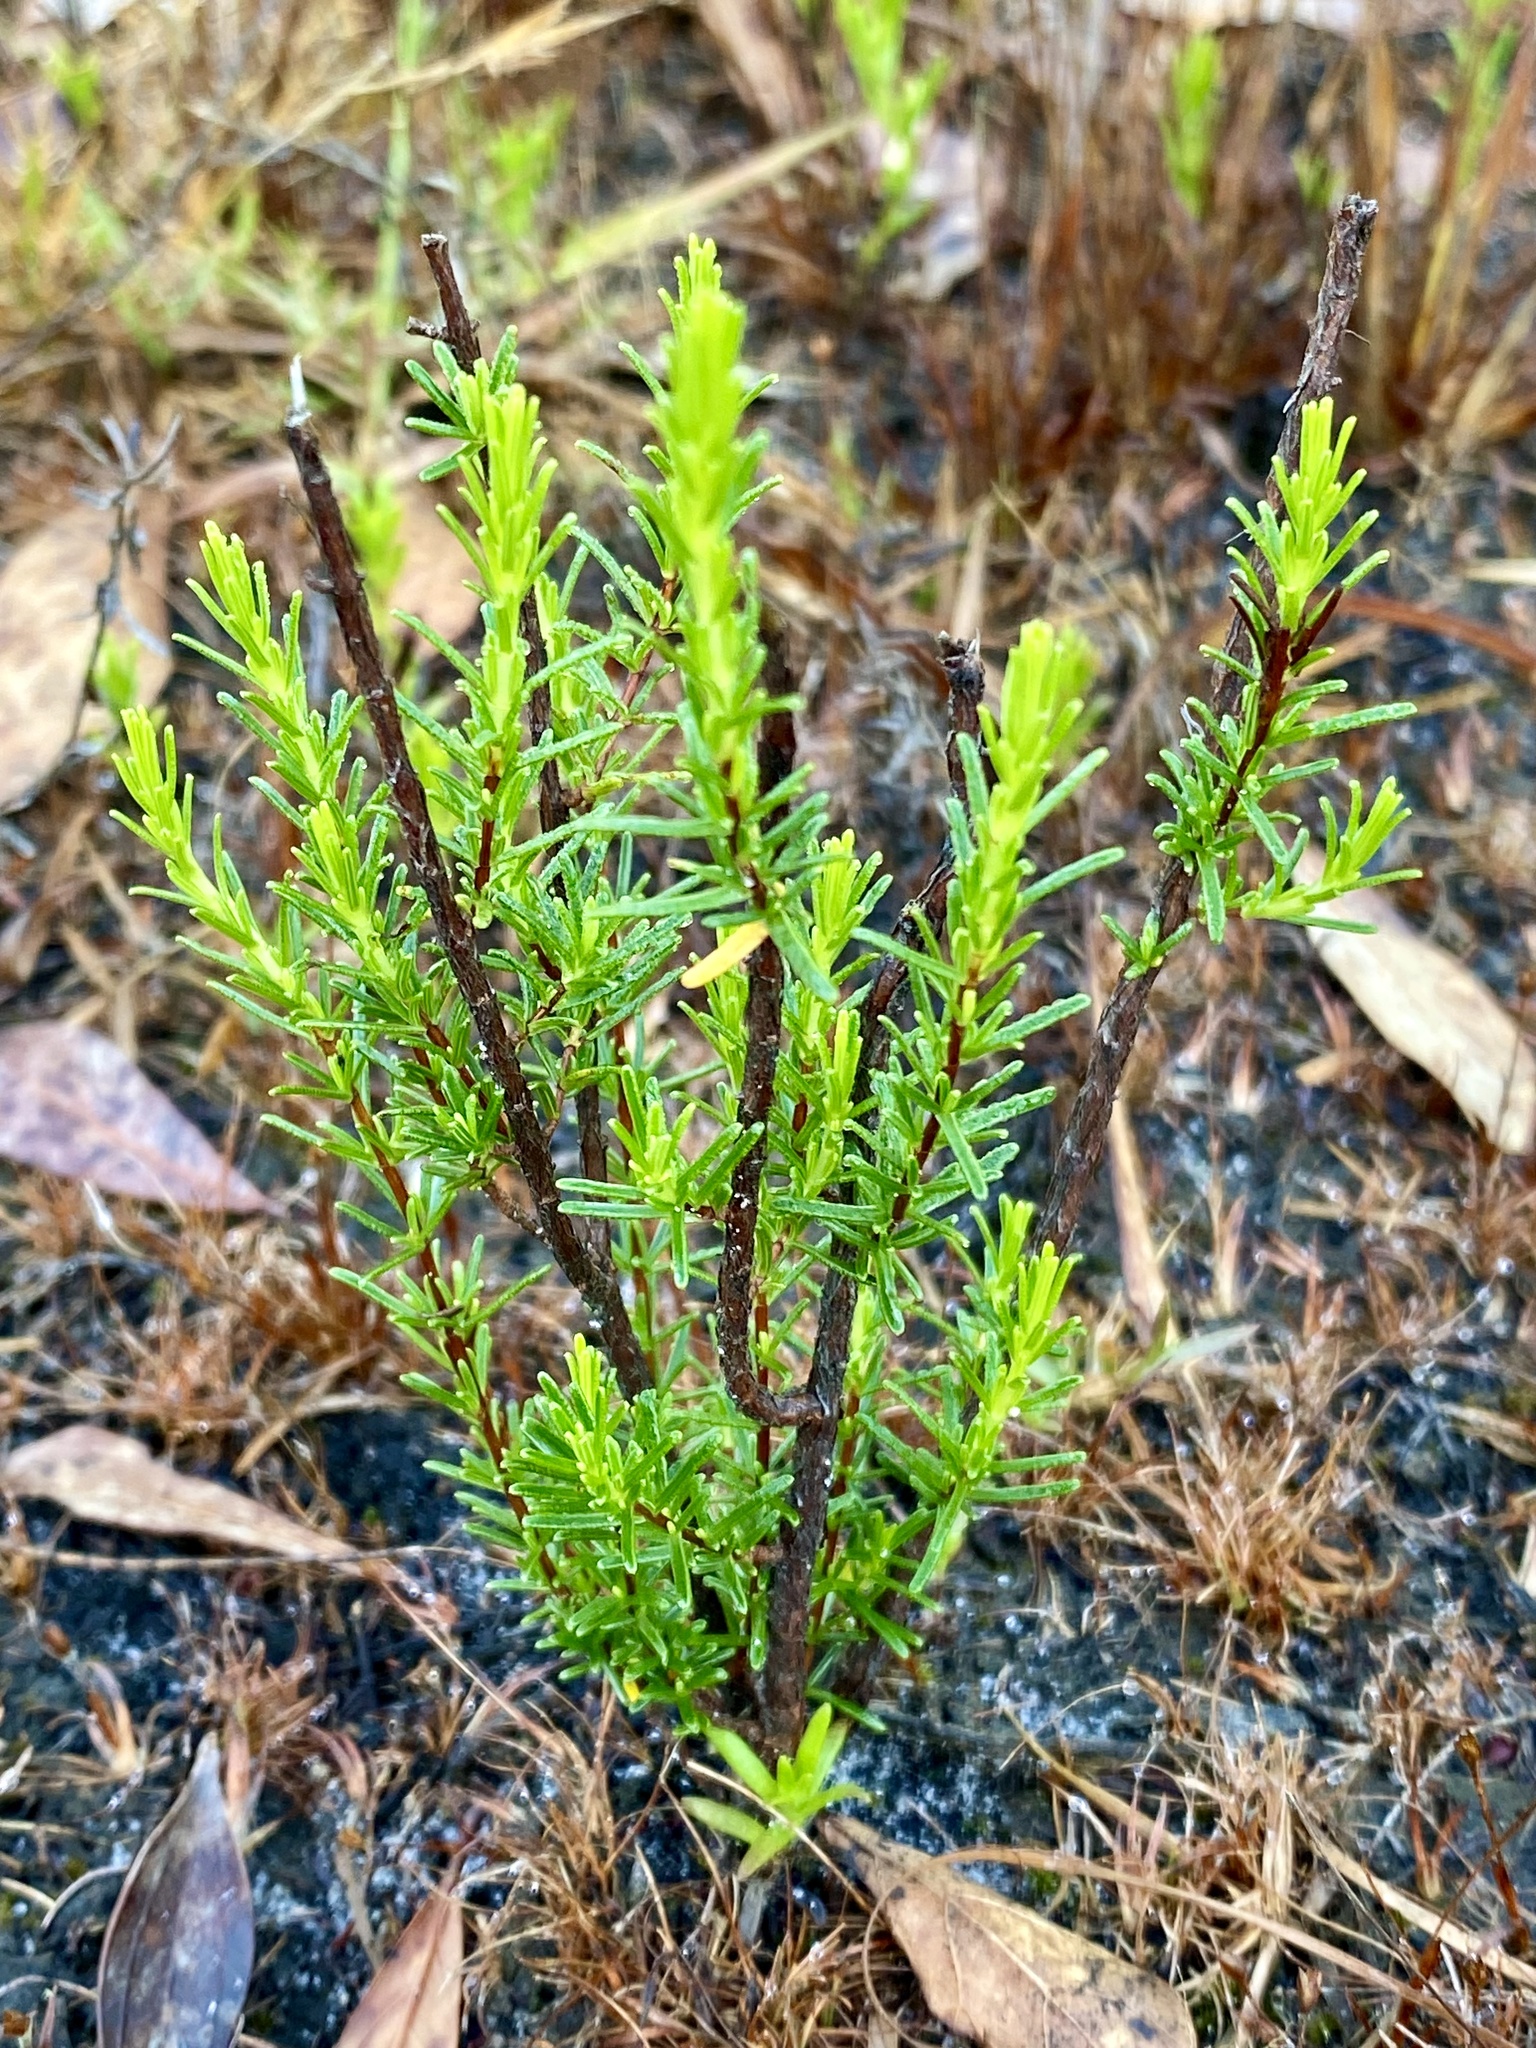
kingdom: Plantae
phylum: Tracheophyta
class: Magnoliopsida
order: Malpighiales
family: Hypericaceae
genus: Hypericum
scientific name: Hypericum tenuifolium
